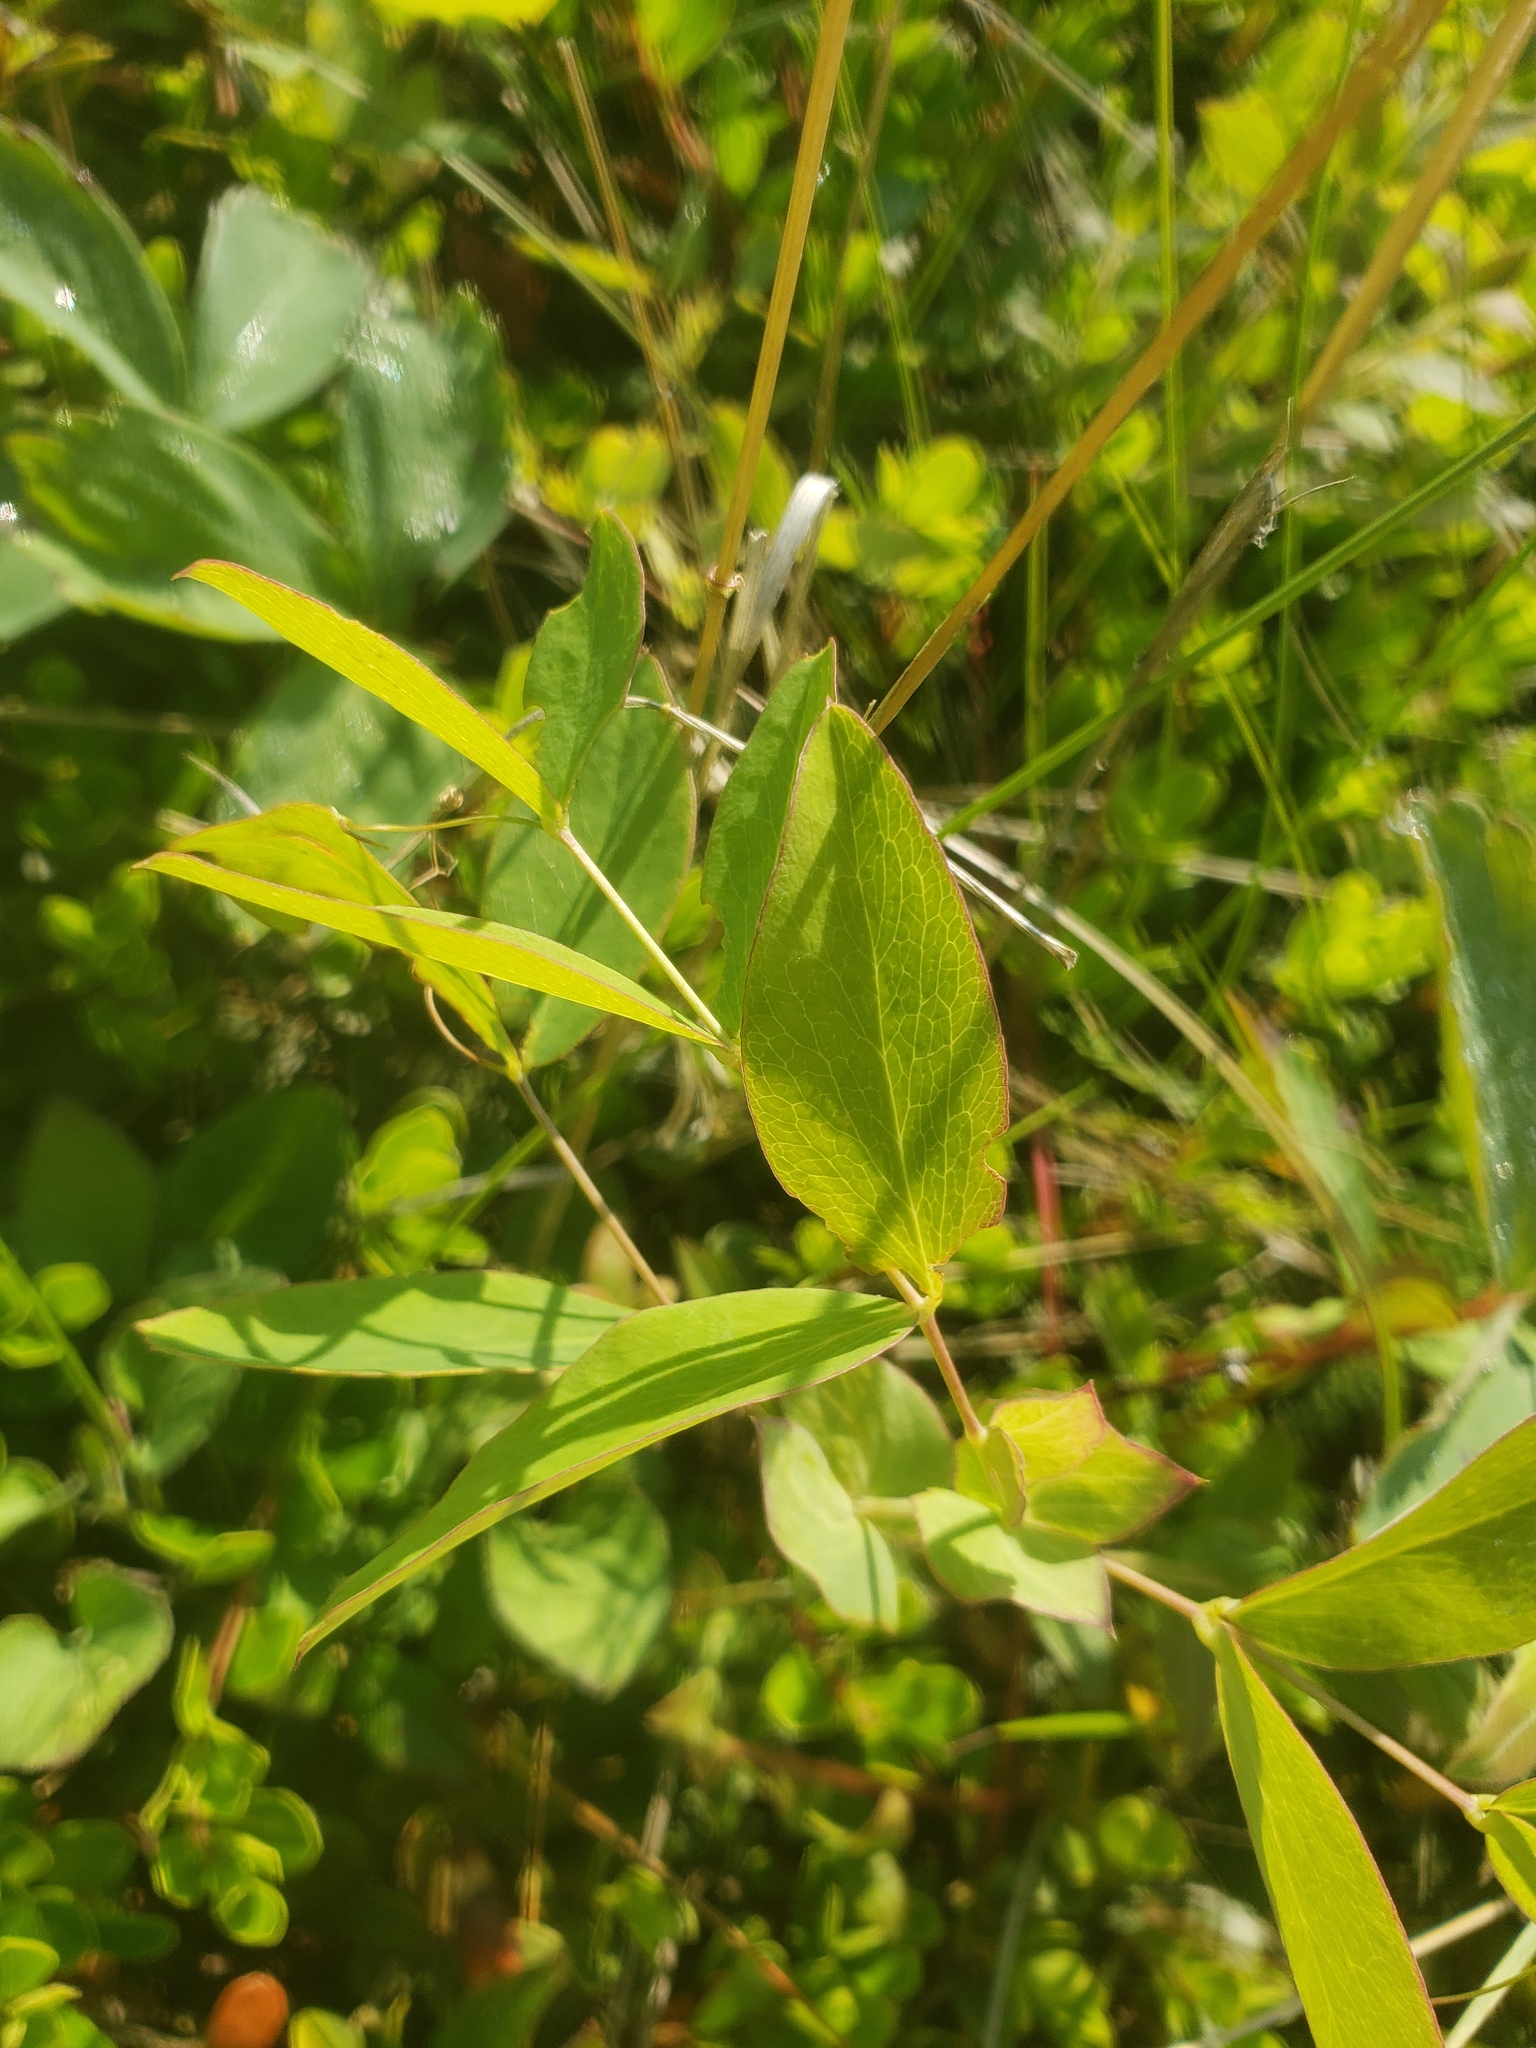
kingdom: Plantae
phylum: Tracheophyta
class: Magnoliopsida
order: Fabales
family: Fabaceae
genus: Lathyrus
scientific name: Lathyrus ochroleucus
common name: Pale vetchling
